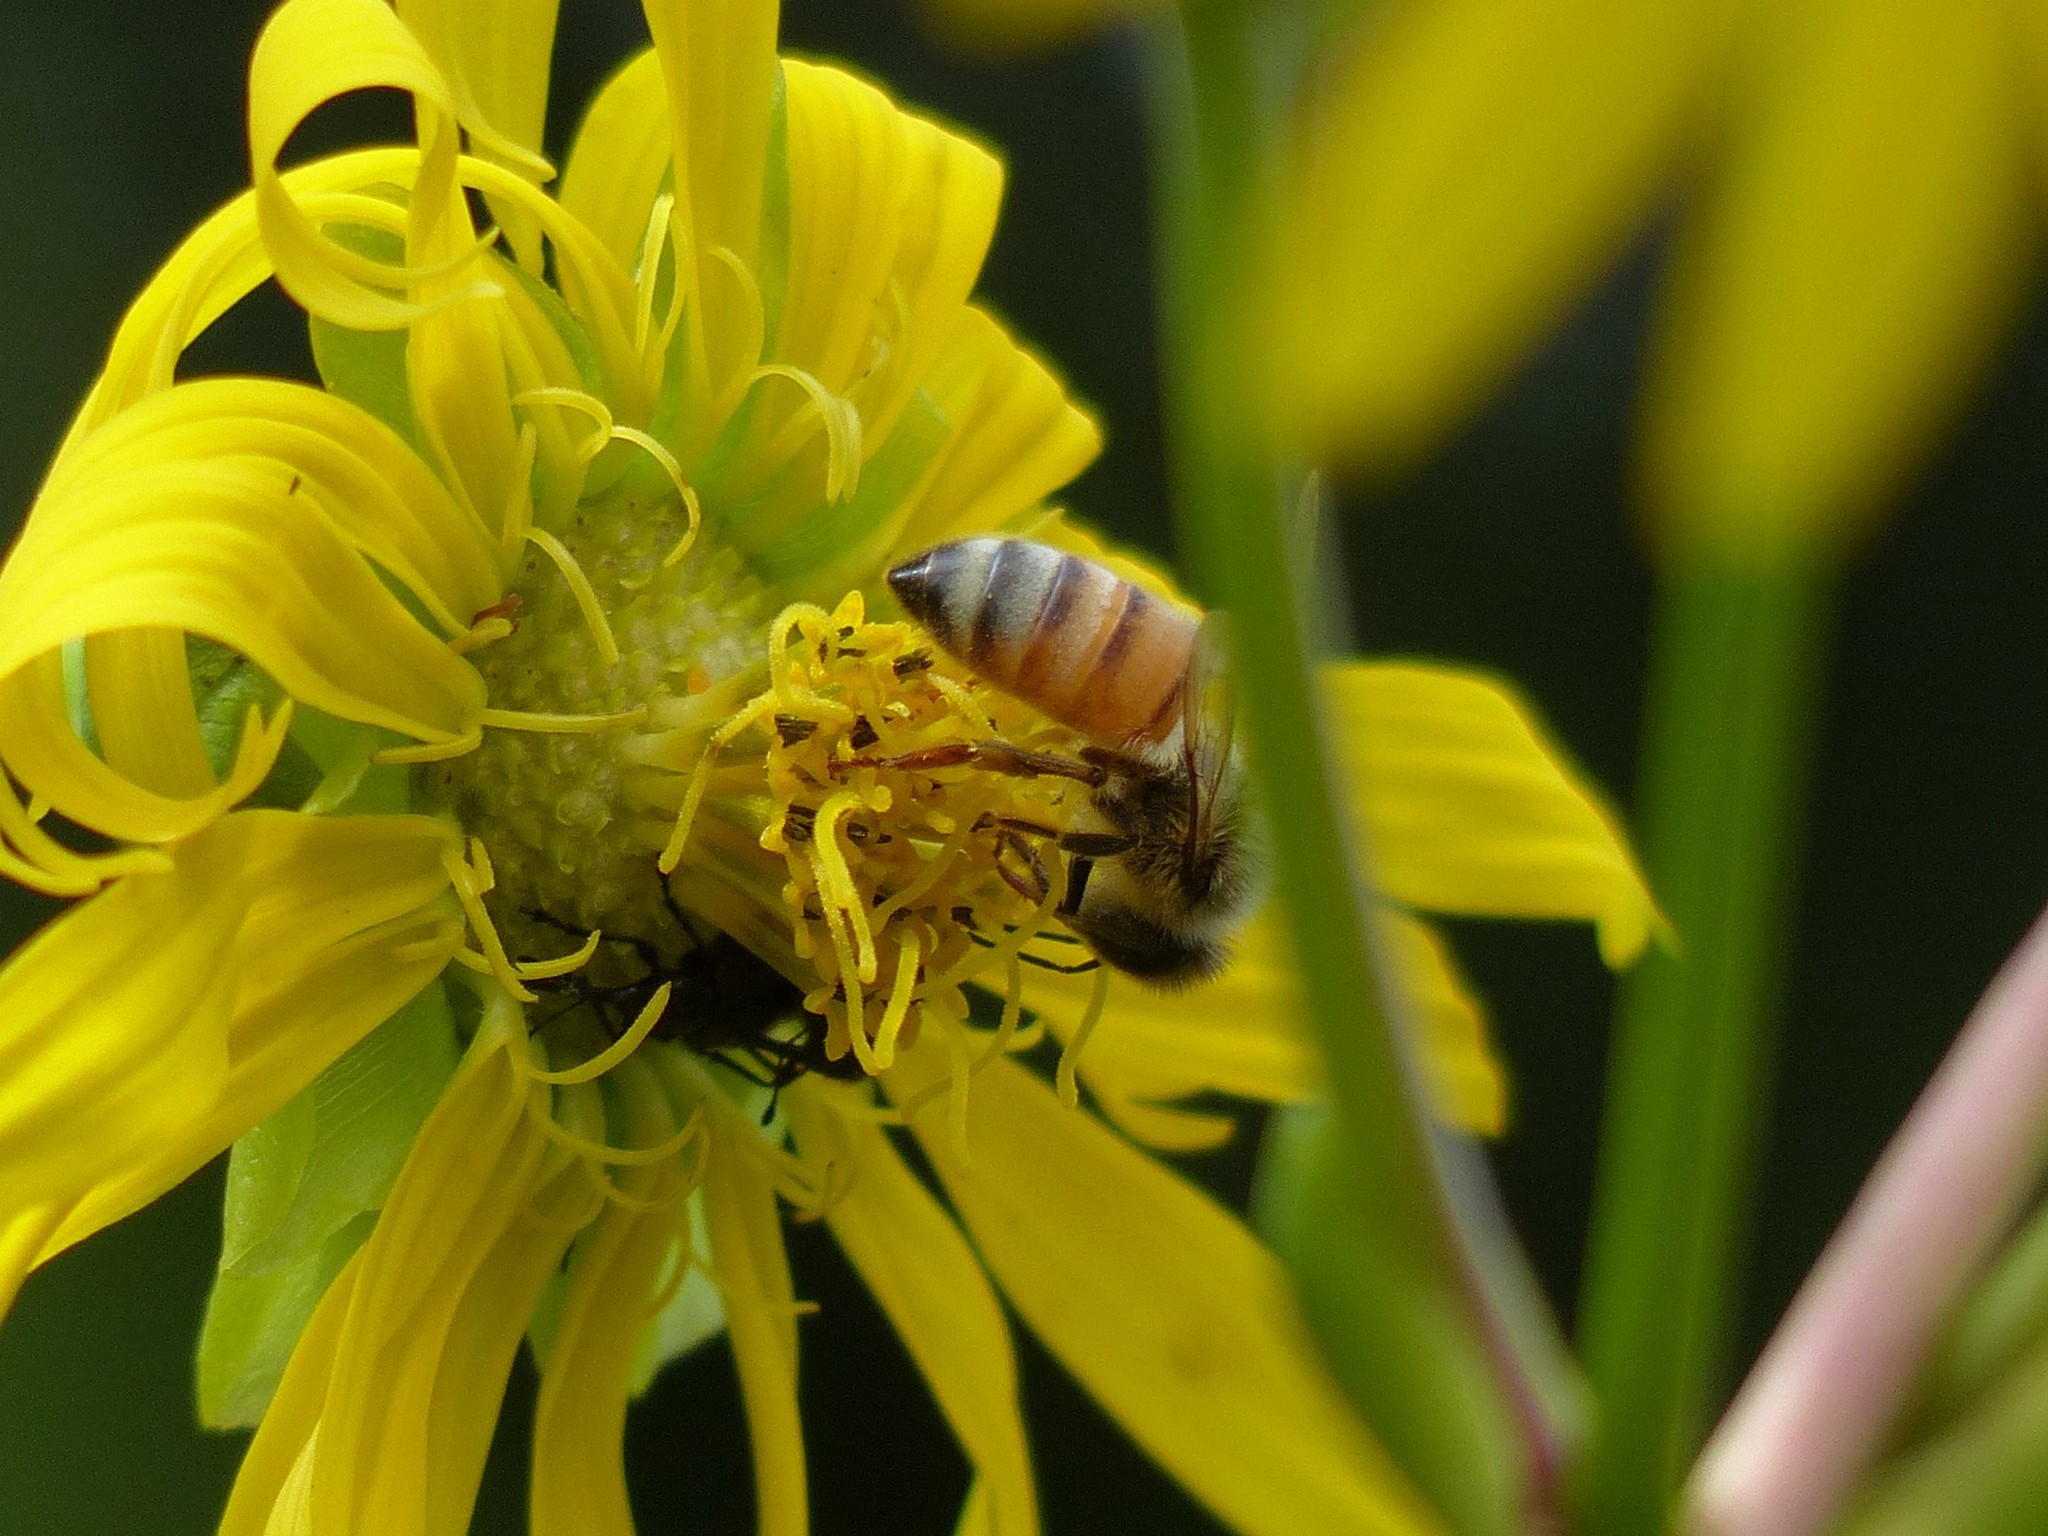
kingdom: Animalia
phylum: Arthropoda
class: Insecta
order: Hymenoptera
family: Apidae
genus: Apis
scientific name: Apis mellifera
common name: Honey bee
